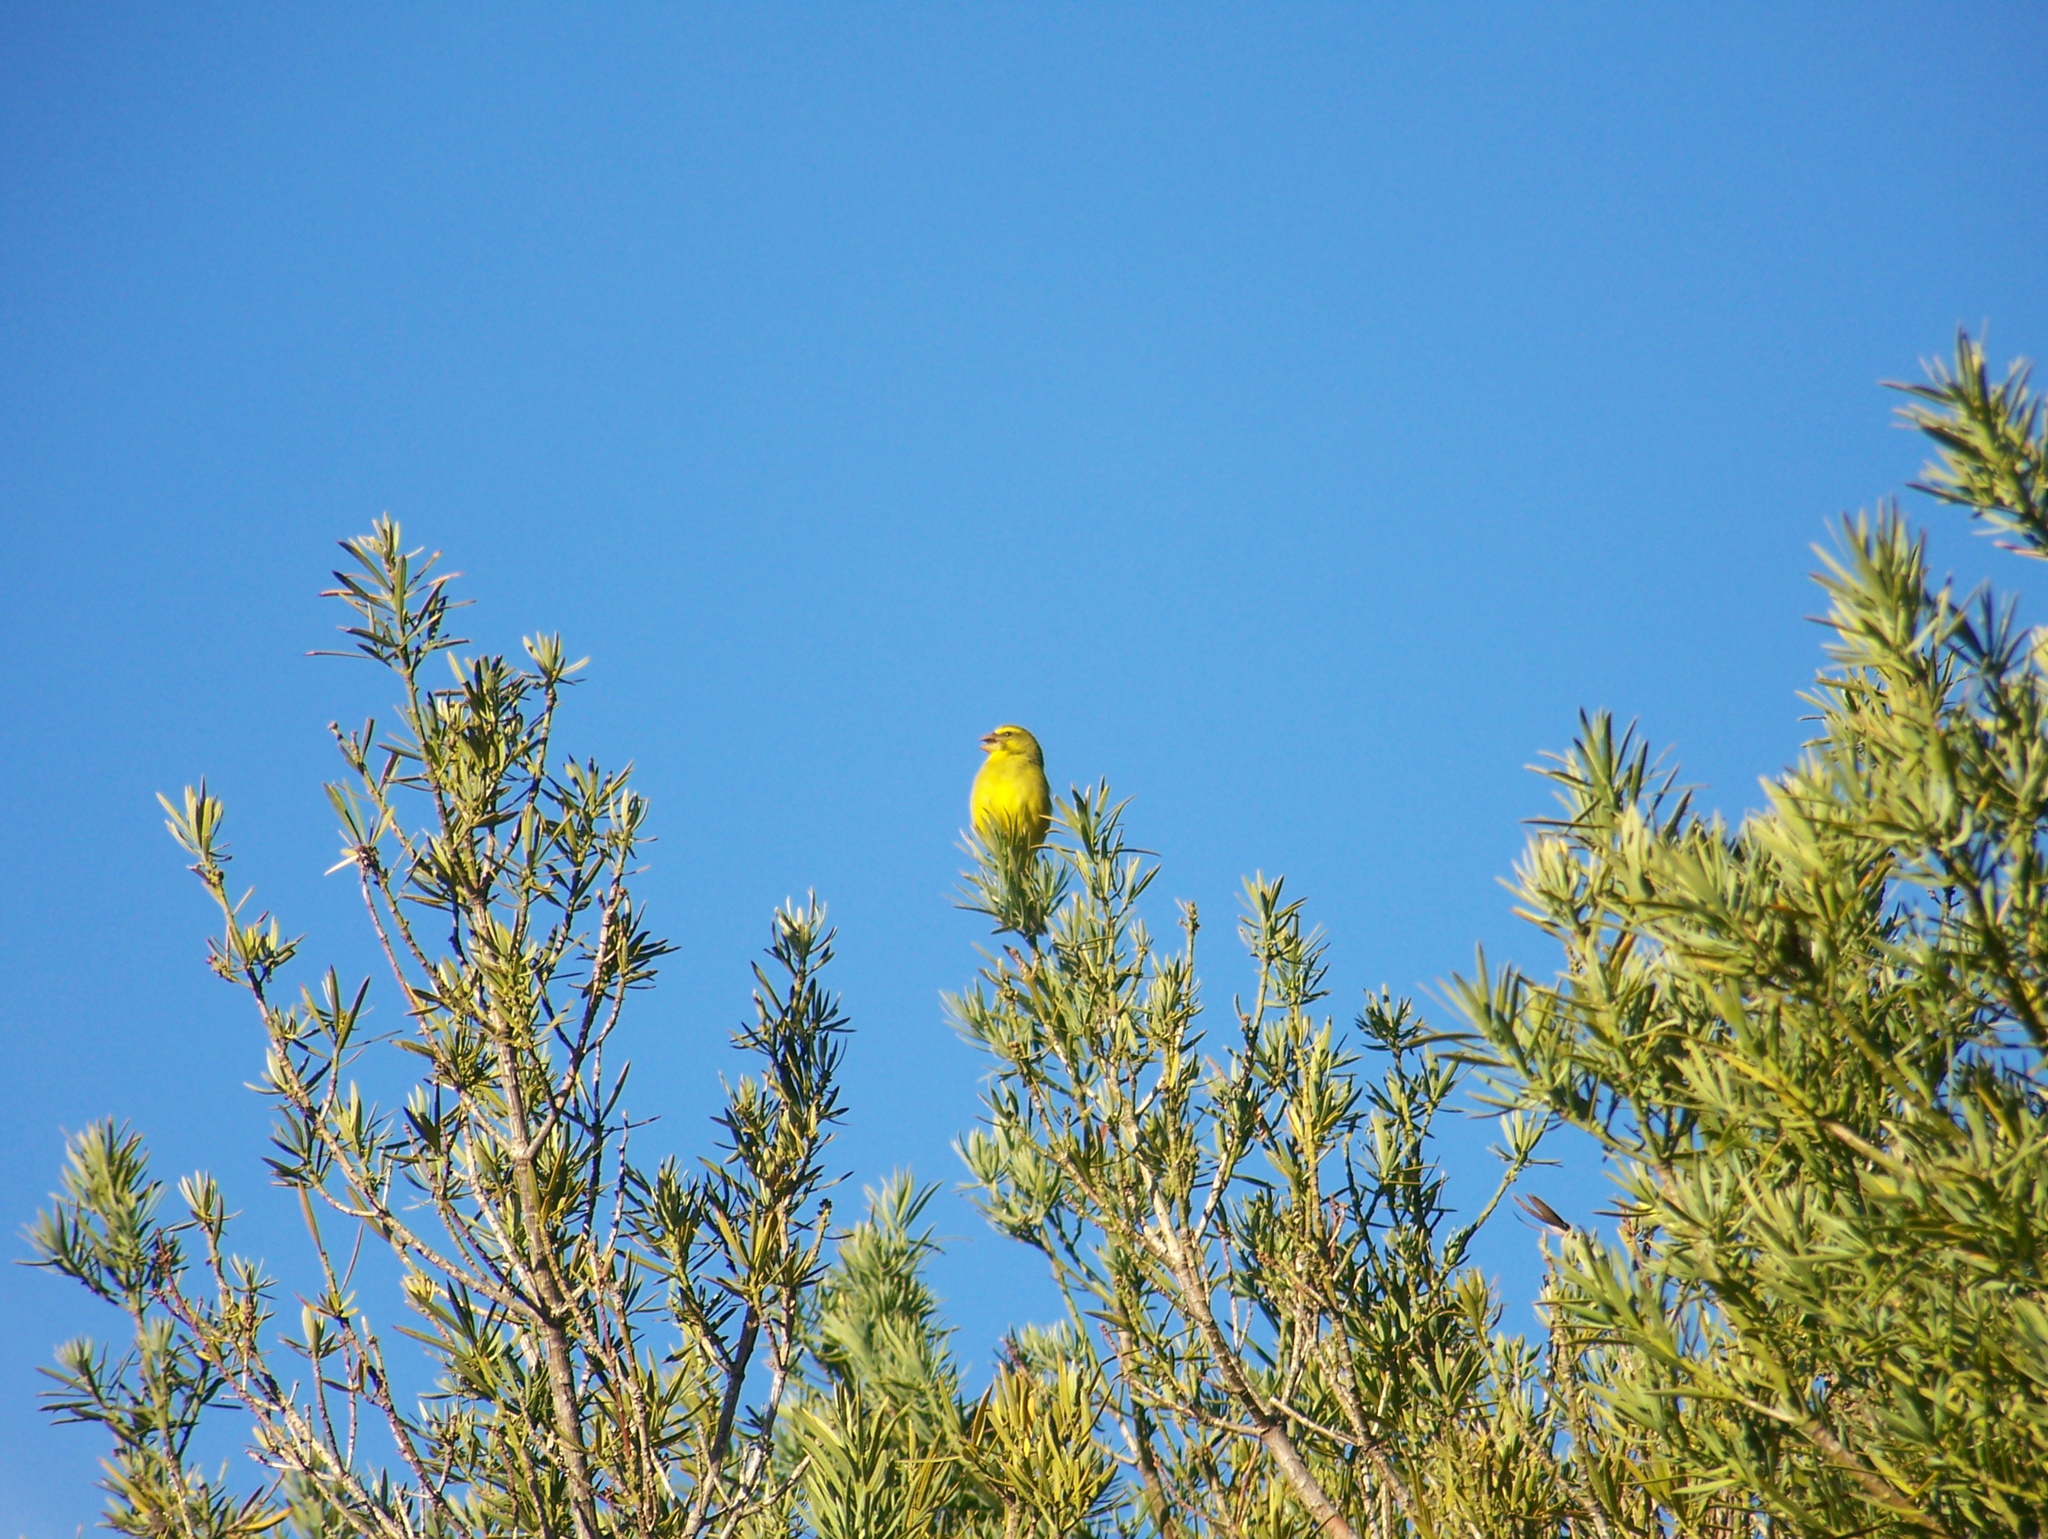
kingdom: Animalia
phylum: Chordata
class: Aves
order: Passeriformes
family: Fringillidae
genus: Crithagra
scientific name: Crithagra sulphurata
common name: Brimstone canary
